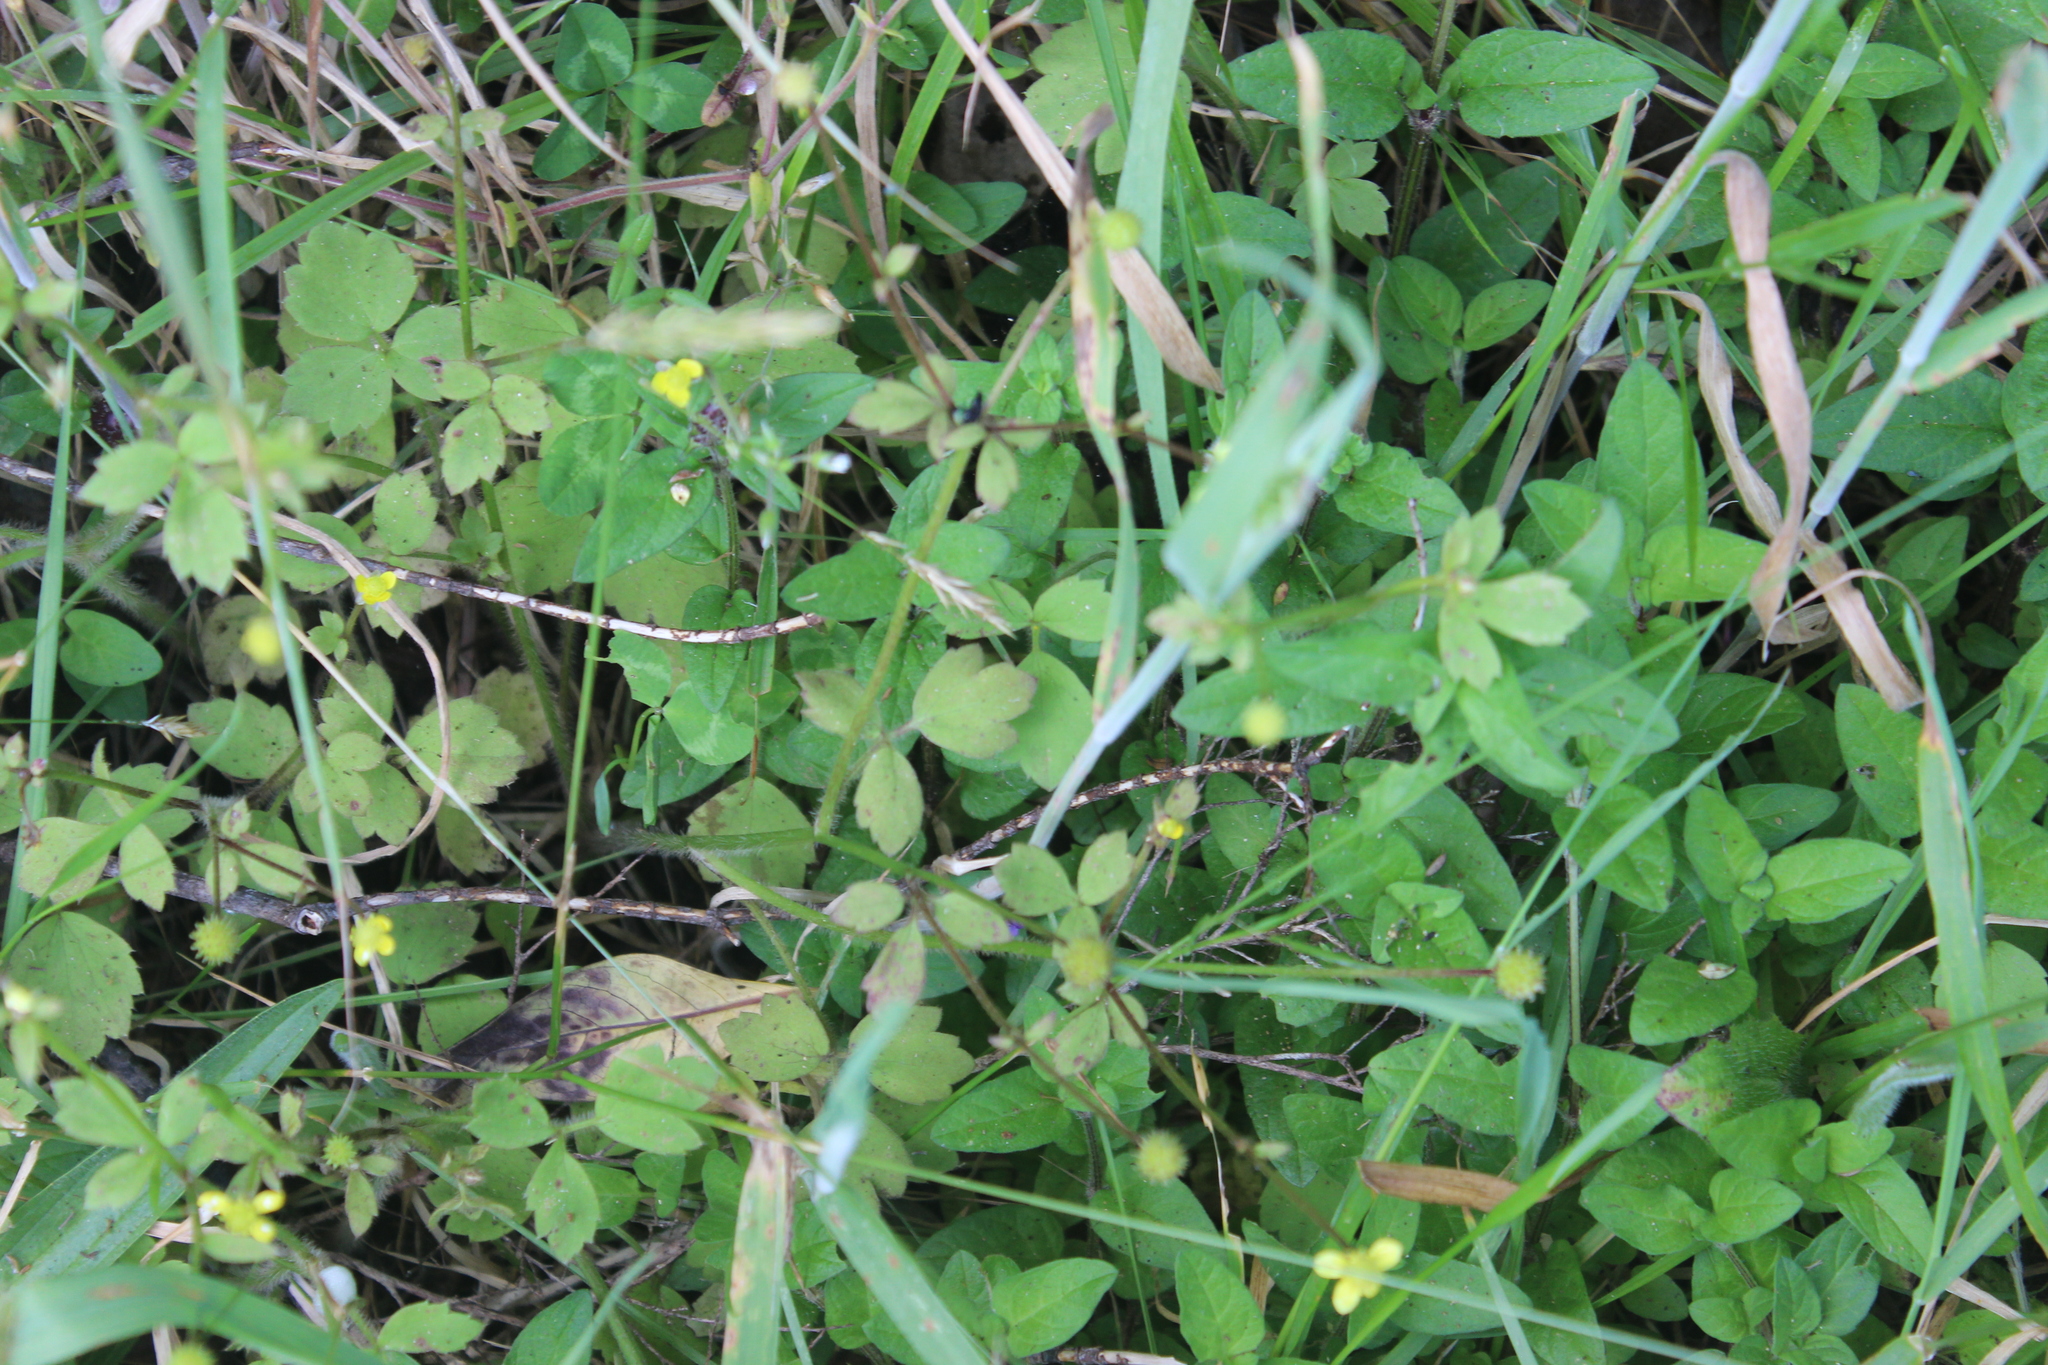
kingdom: Plantae
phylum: Tracheophyta
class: Magnoliopsida
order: Ranunculales
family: Ranunculaceae
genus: Ranunculus
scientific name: Ranunculus reflexus
